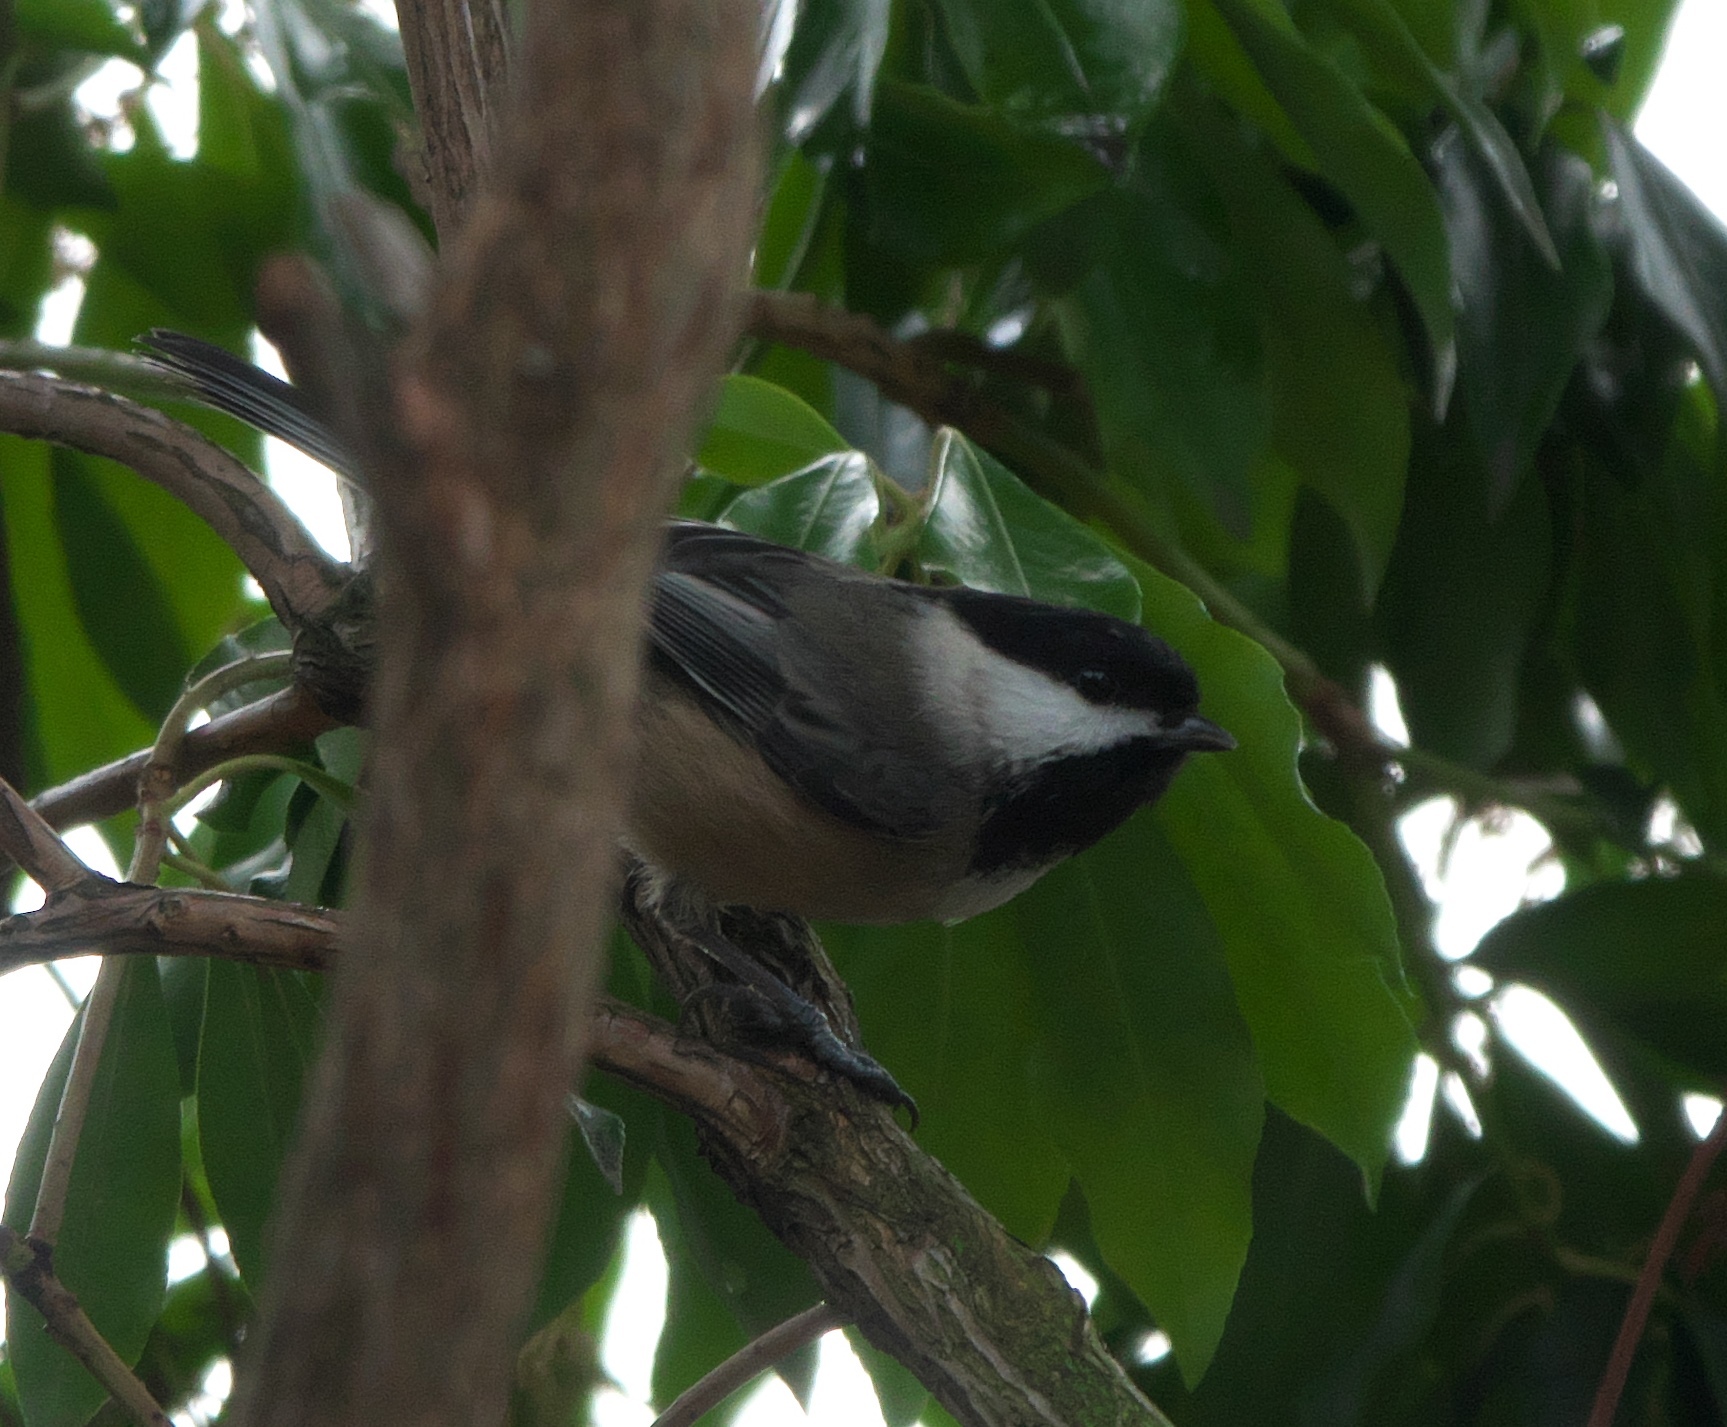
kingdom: Animalia
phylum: Chordata
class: Aves
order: Passeriformes
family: Paridae
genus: Poecile
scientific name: Poecile atricapillus
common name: Black-capped chickadee
